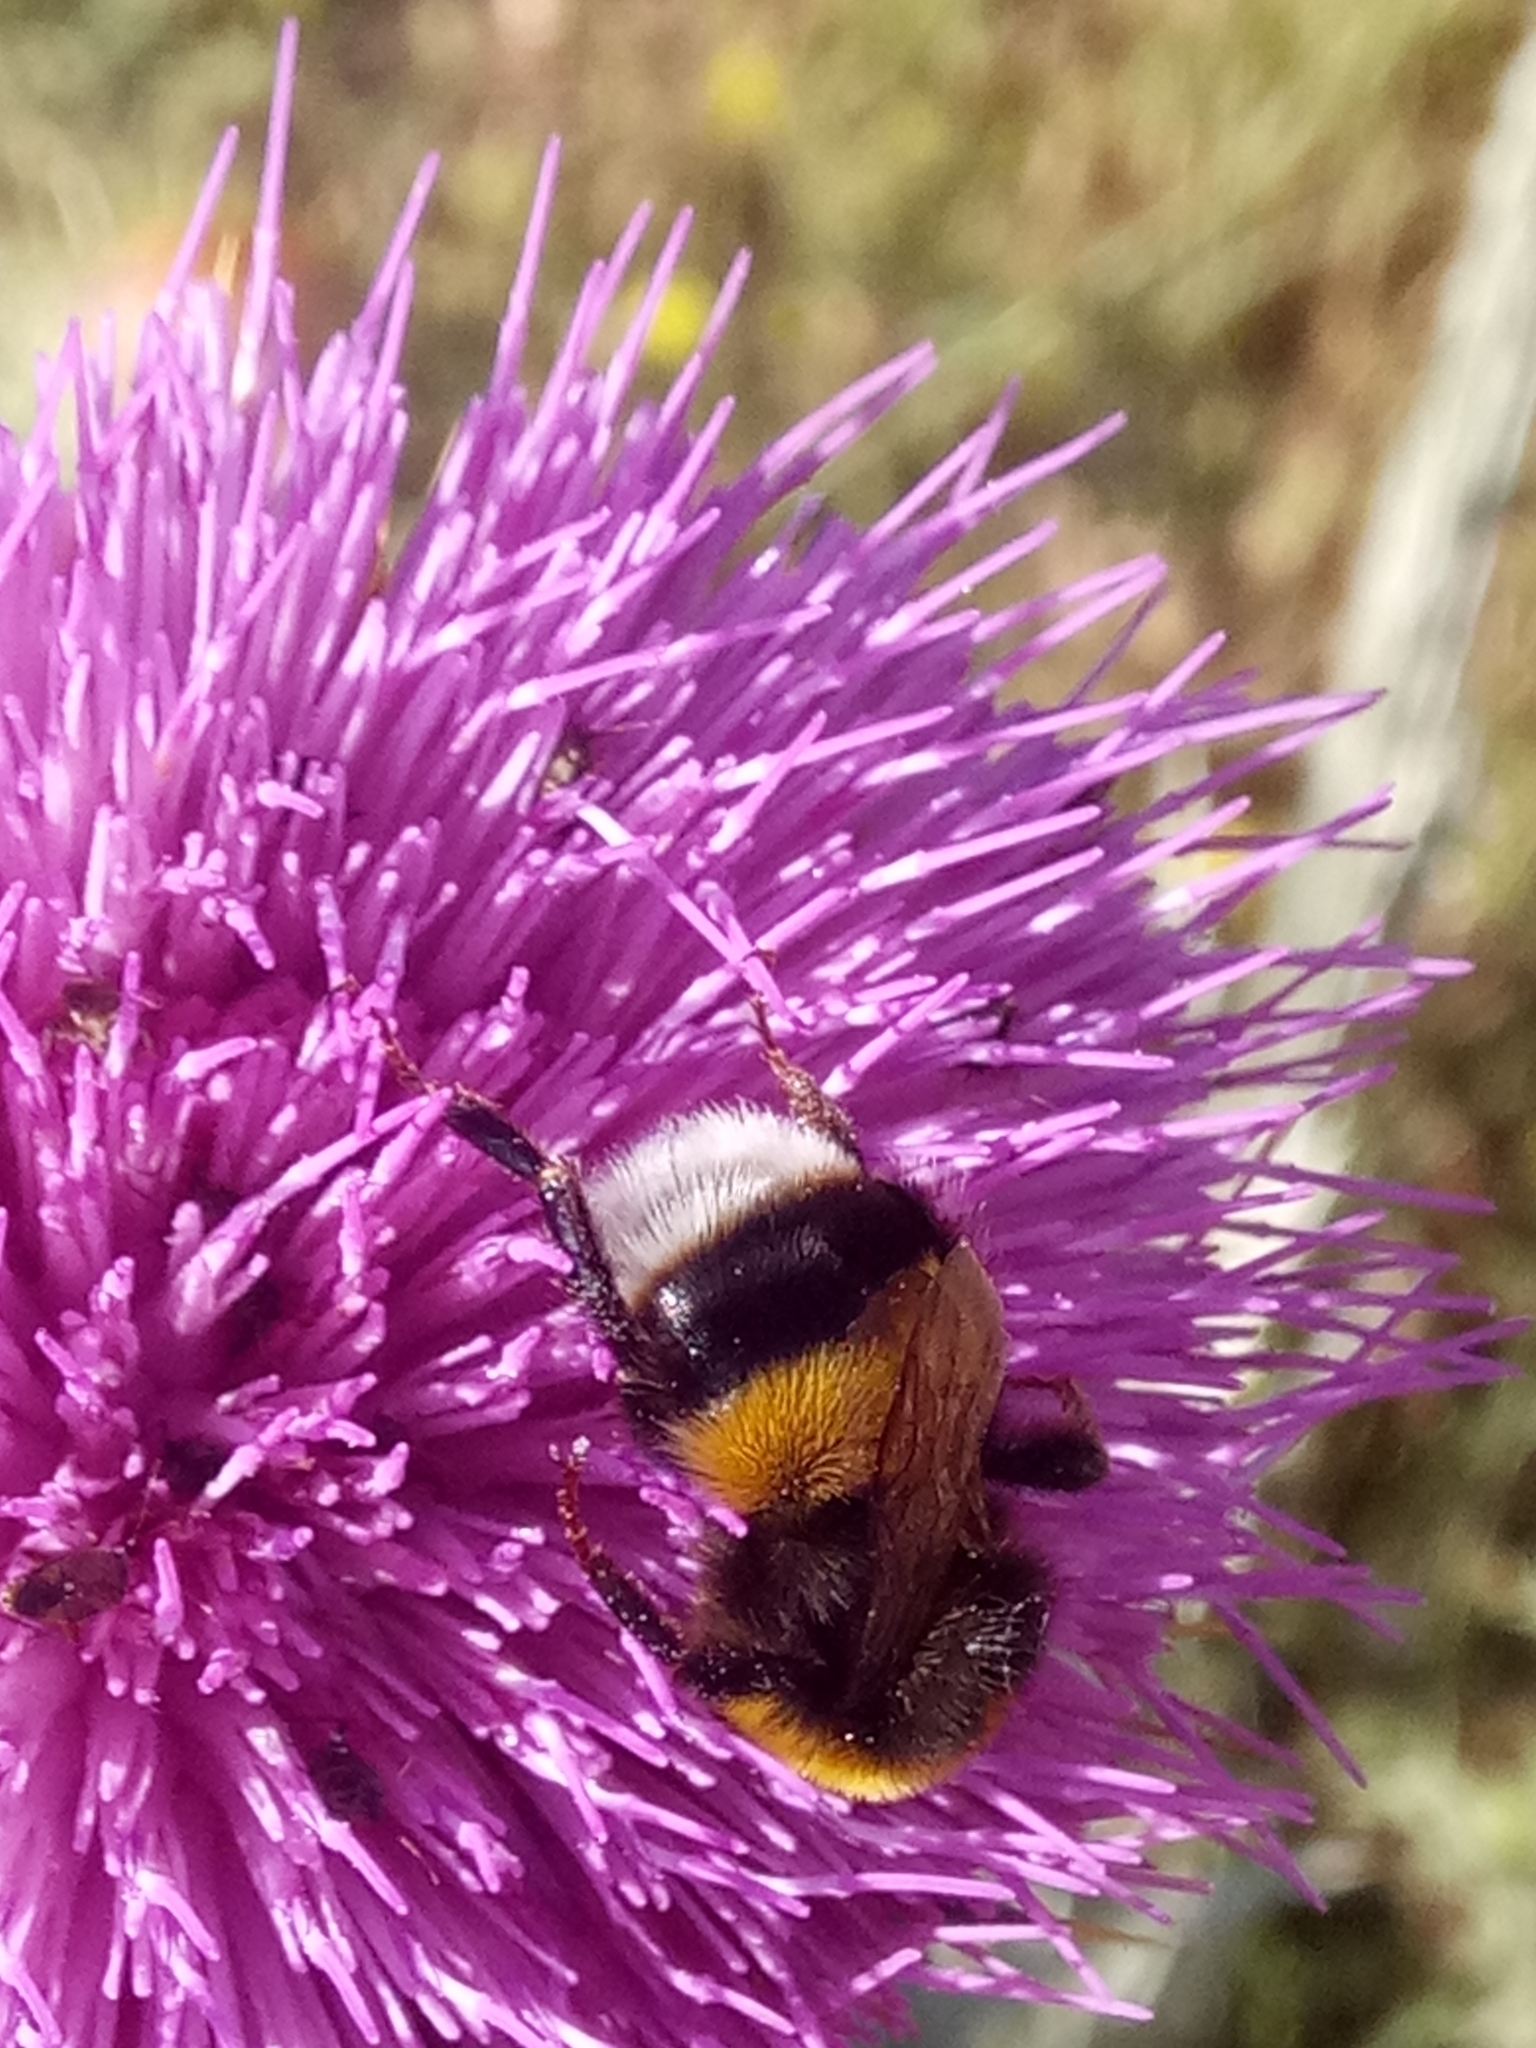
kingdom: Animalia
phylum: Arthropoda
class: Insecta
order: Hymenoptera
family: Apidae
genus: Bombus
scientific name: Bombus terrestris
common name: Buff-tailed bumblebee
